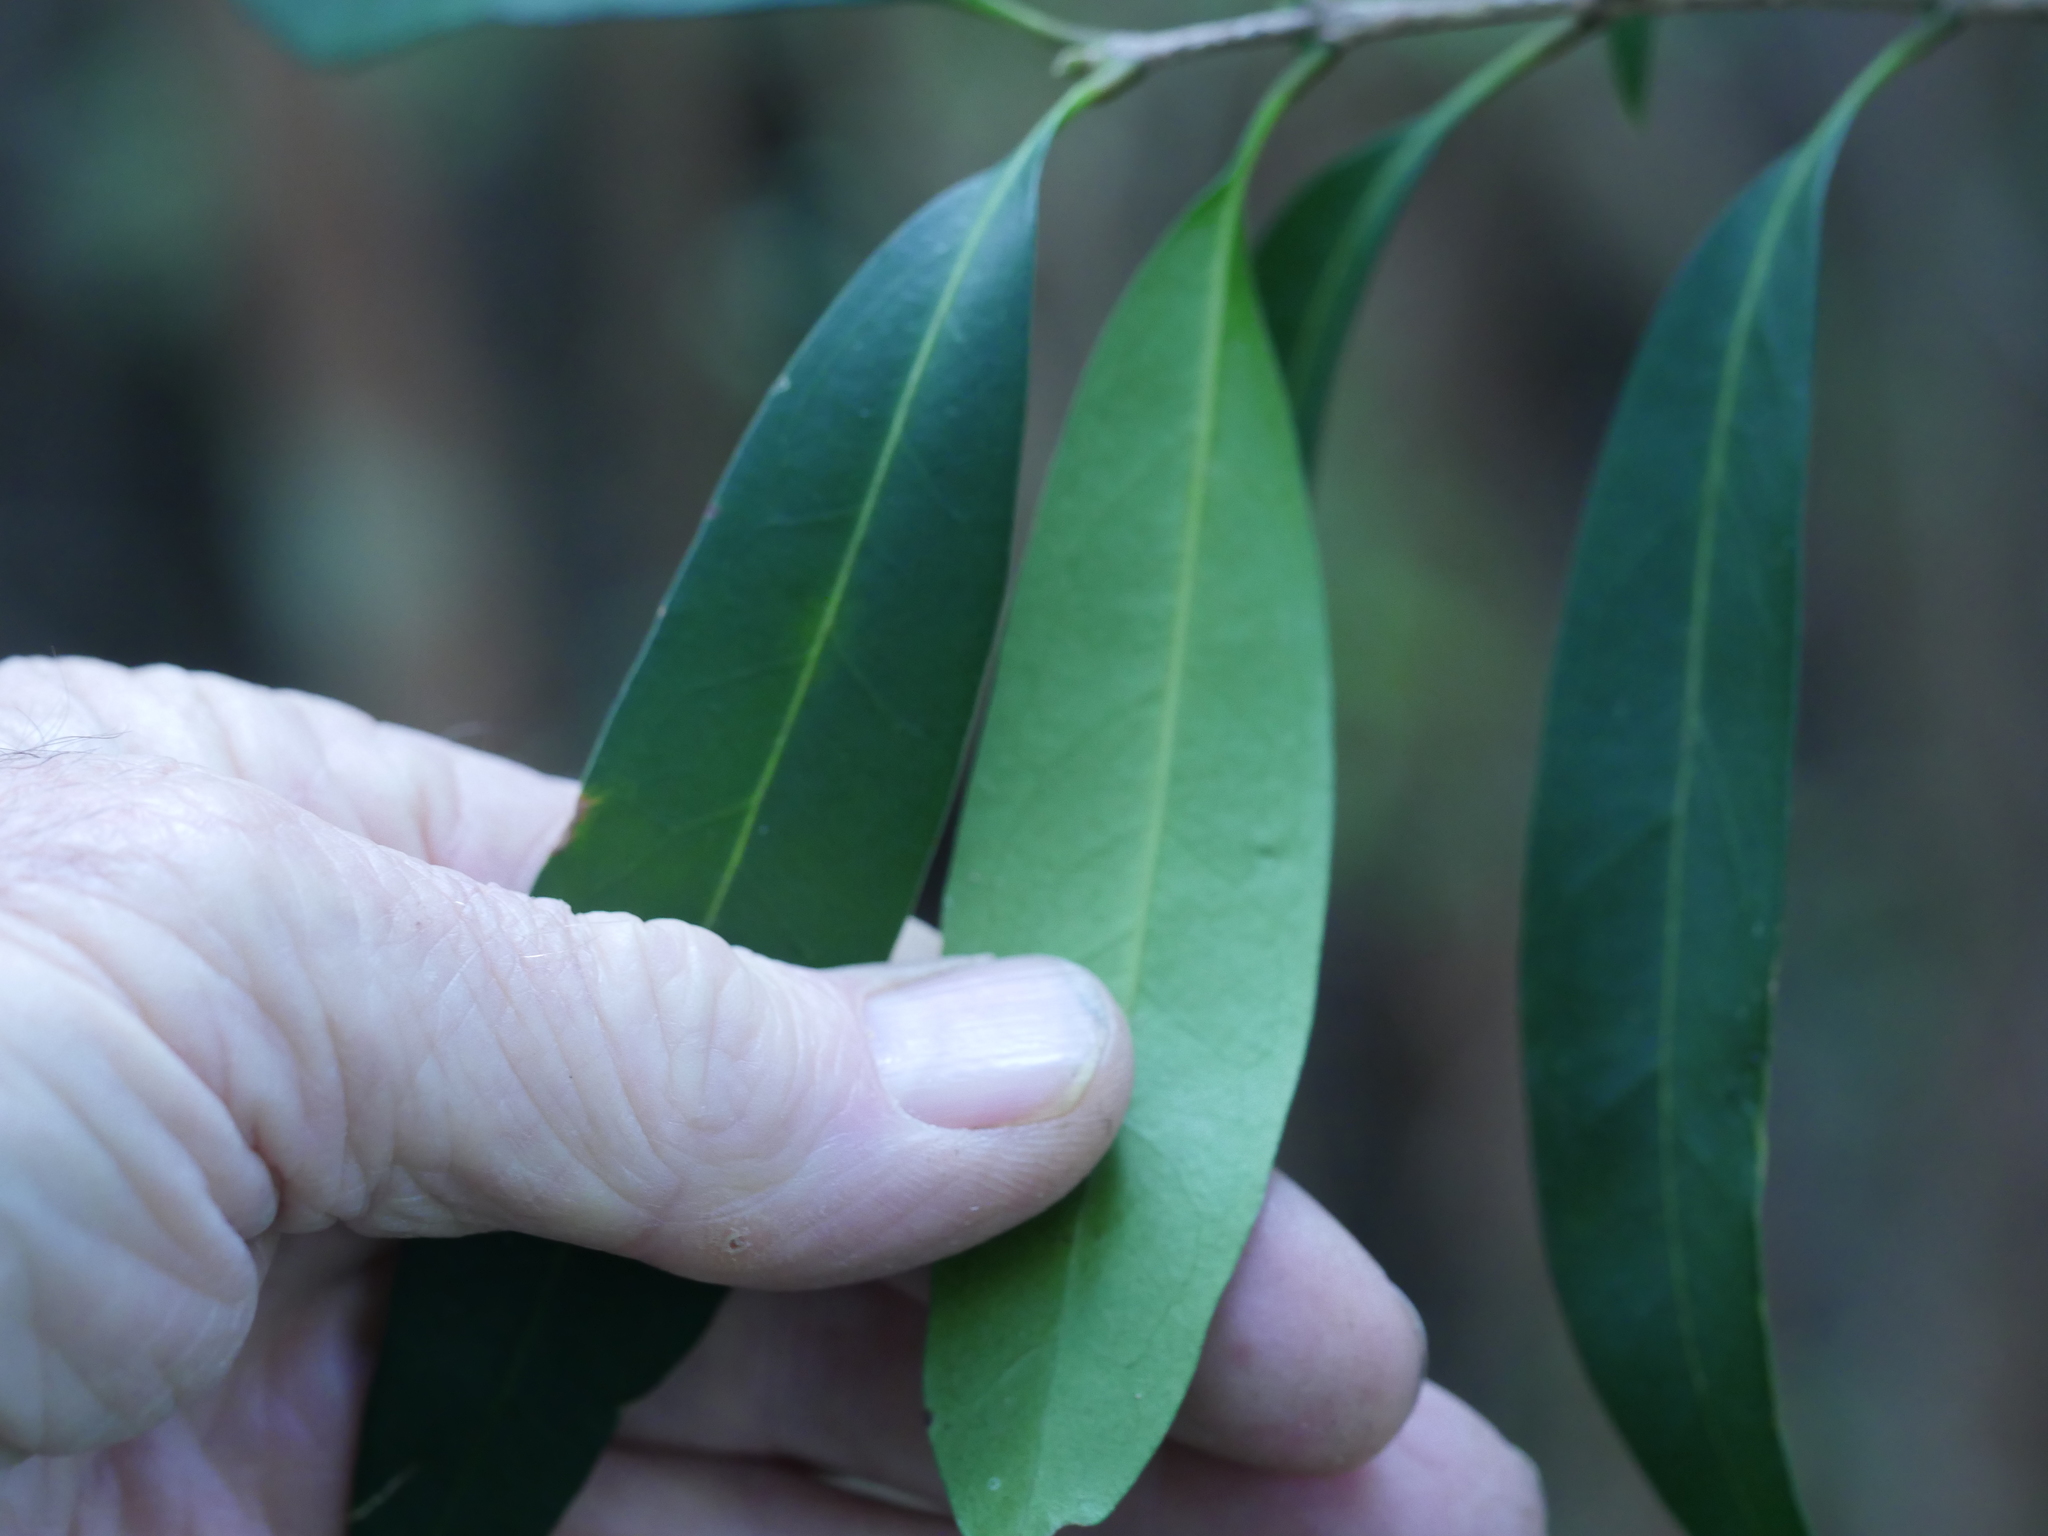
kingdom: Plantae
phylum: Tracheophyta
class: Magnoliopsida
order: Santalales
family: Nanodeaceae
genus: Mida
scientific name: Mida salicifolia
